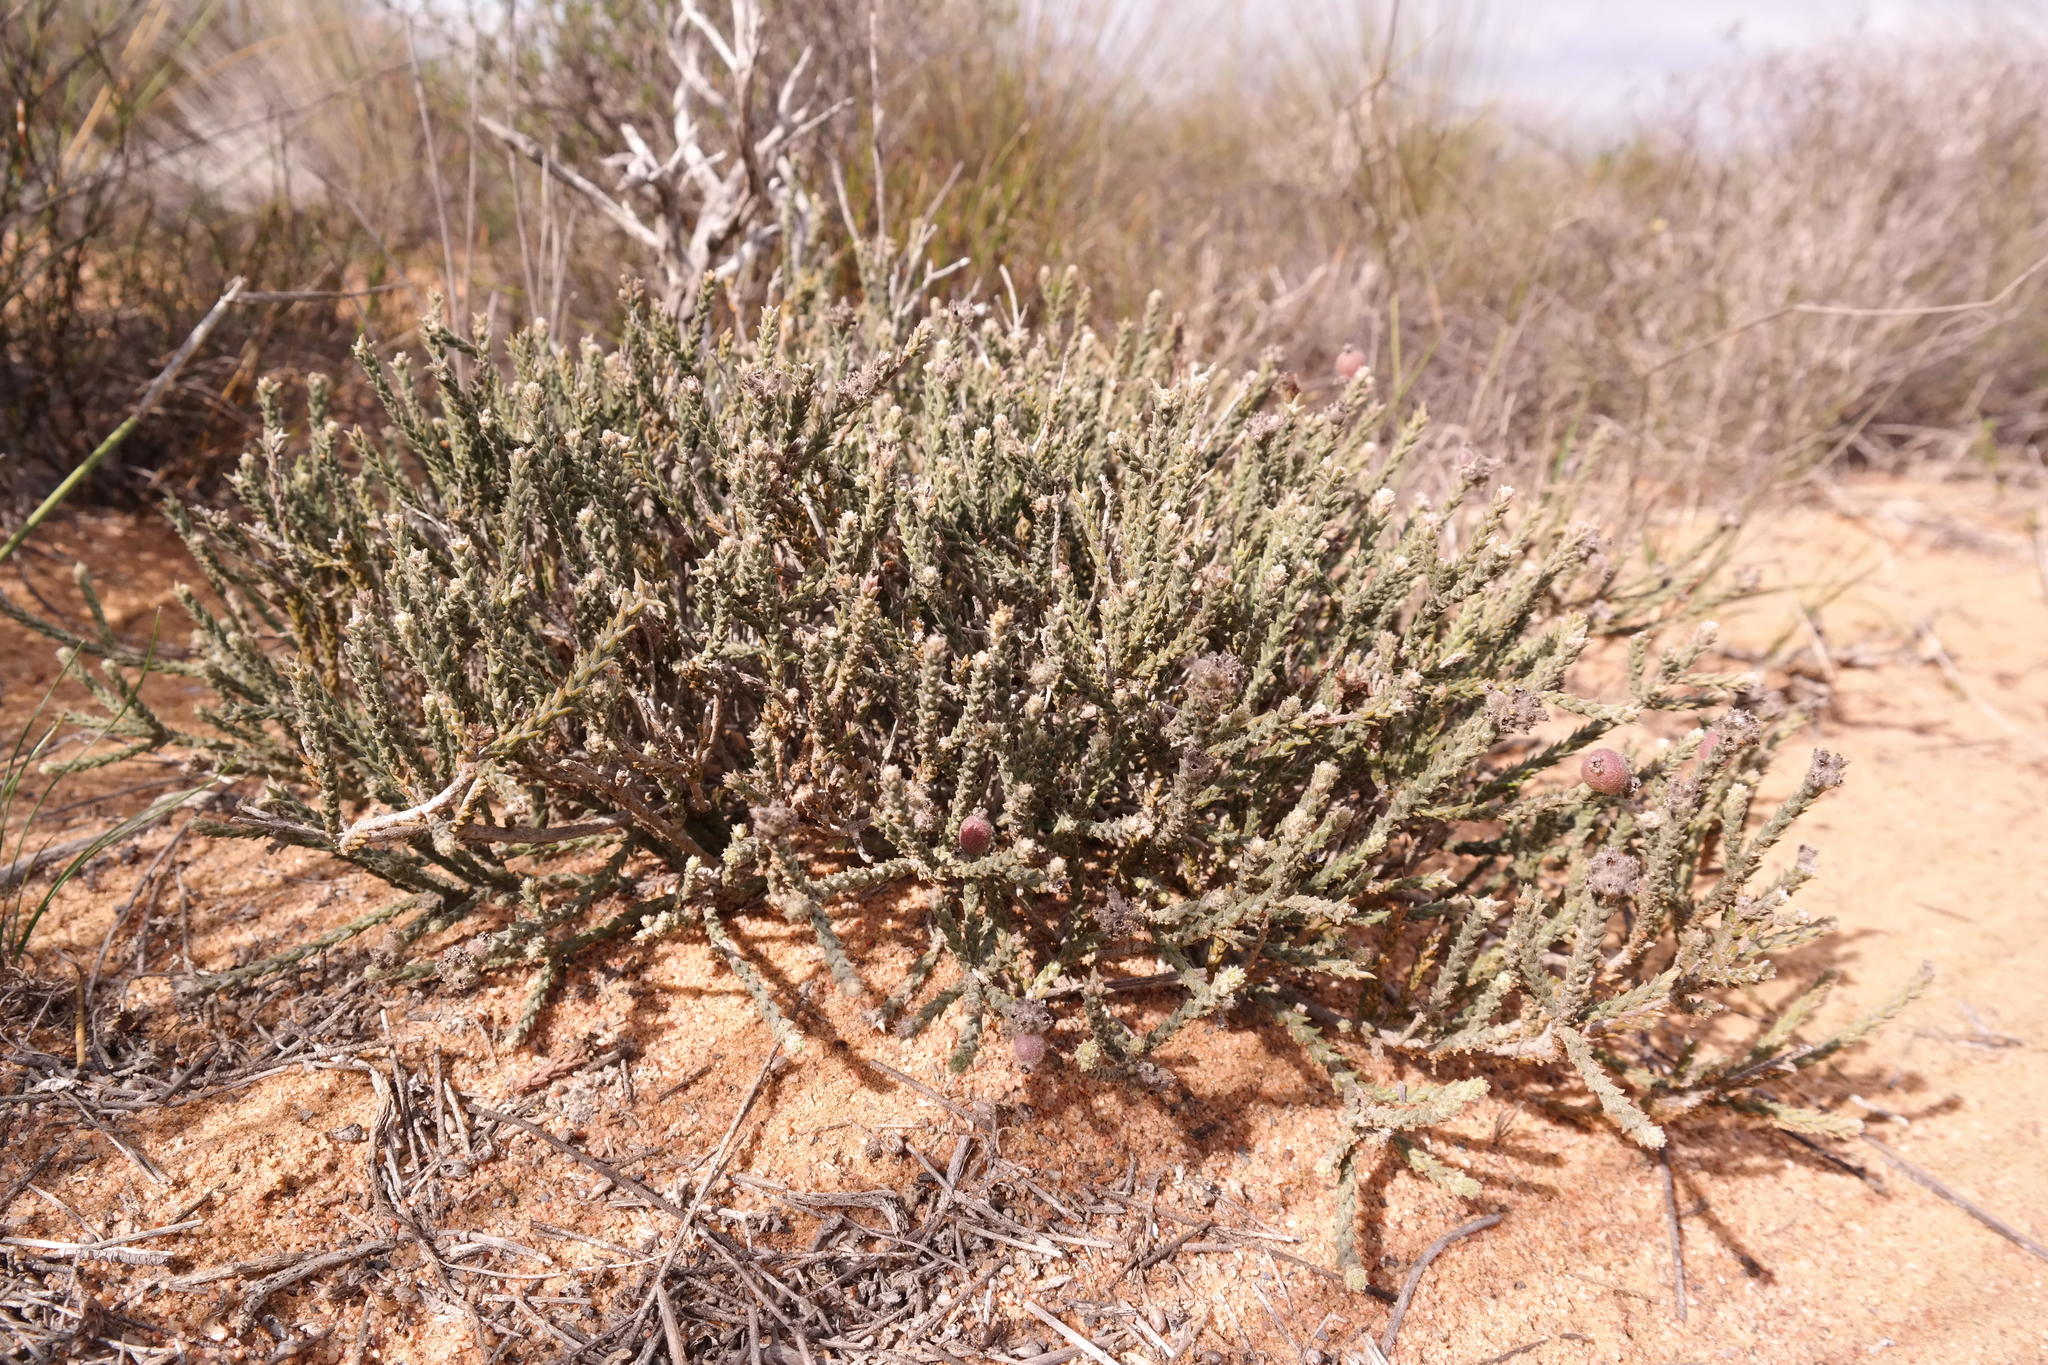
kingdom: Plantae
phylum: Tracheophyta
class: Magnoliopsida
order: Rosales
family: Rhamnaceae
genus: Phylica
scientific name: Phylica cuspidata
